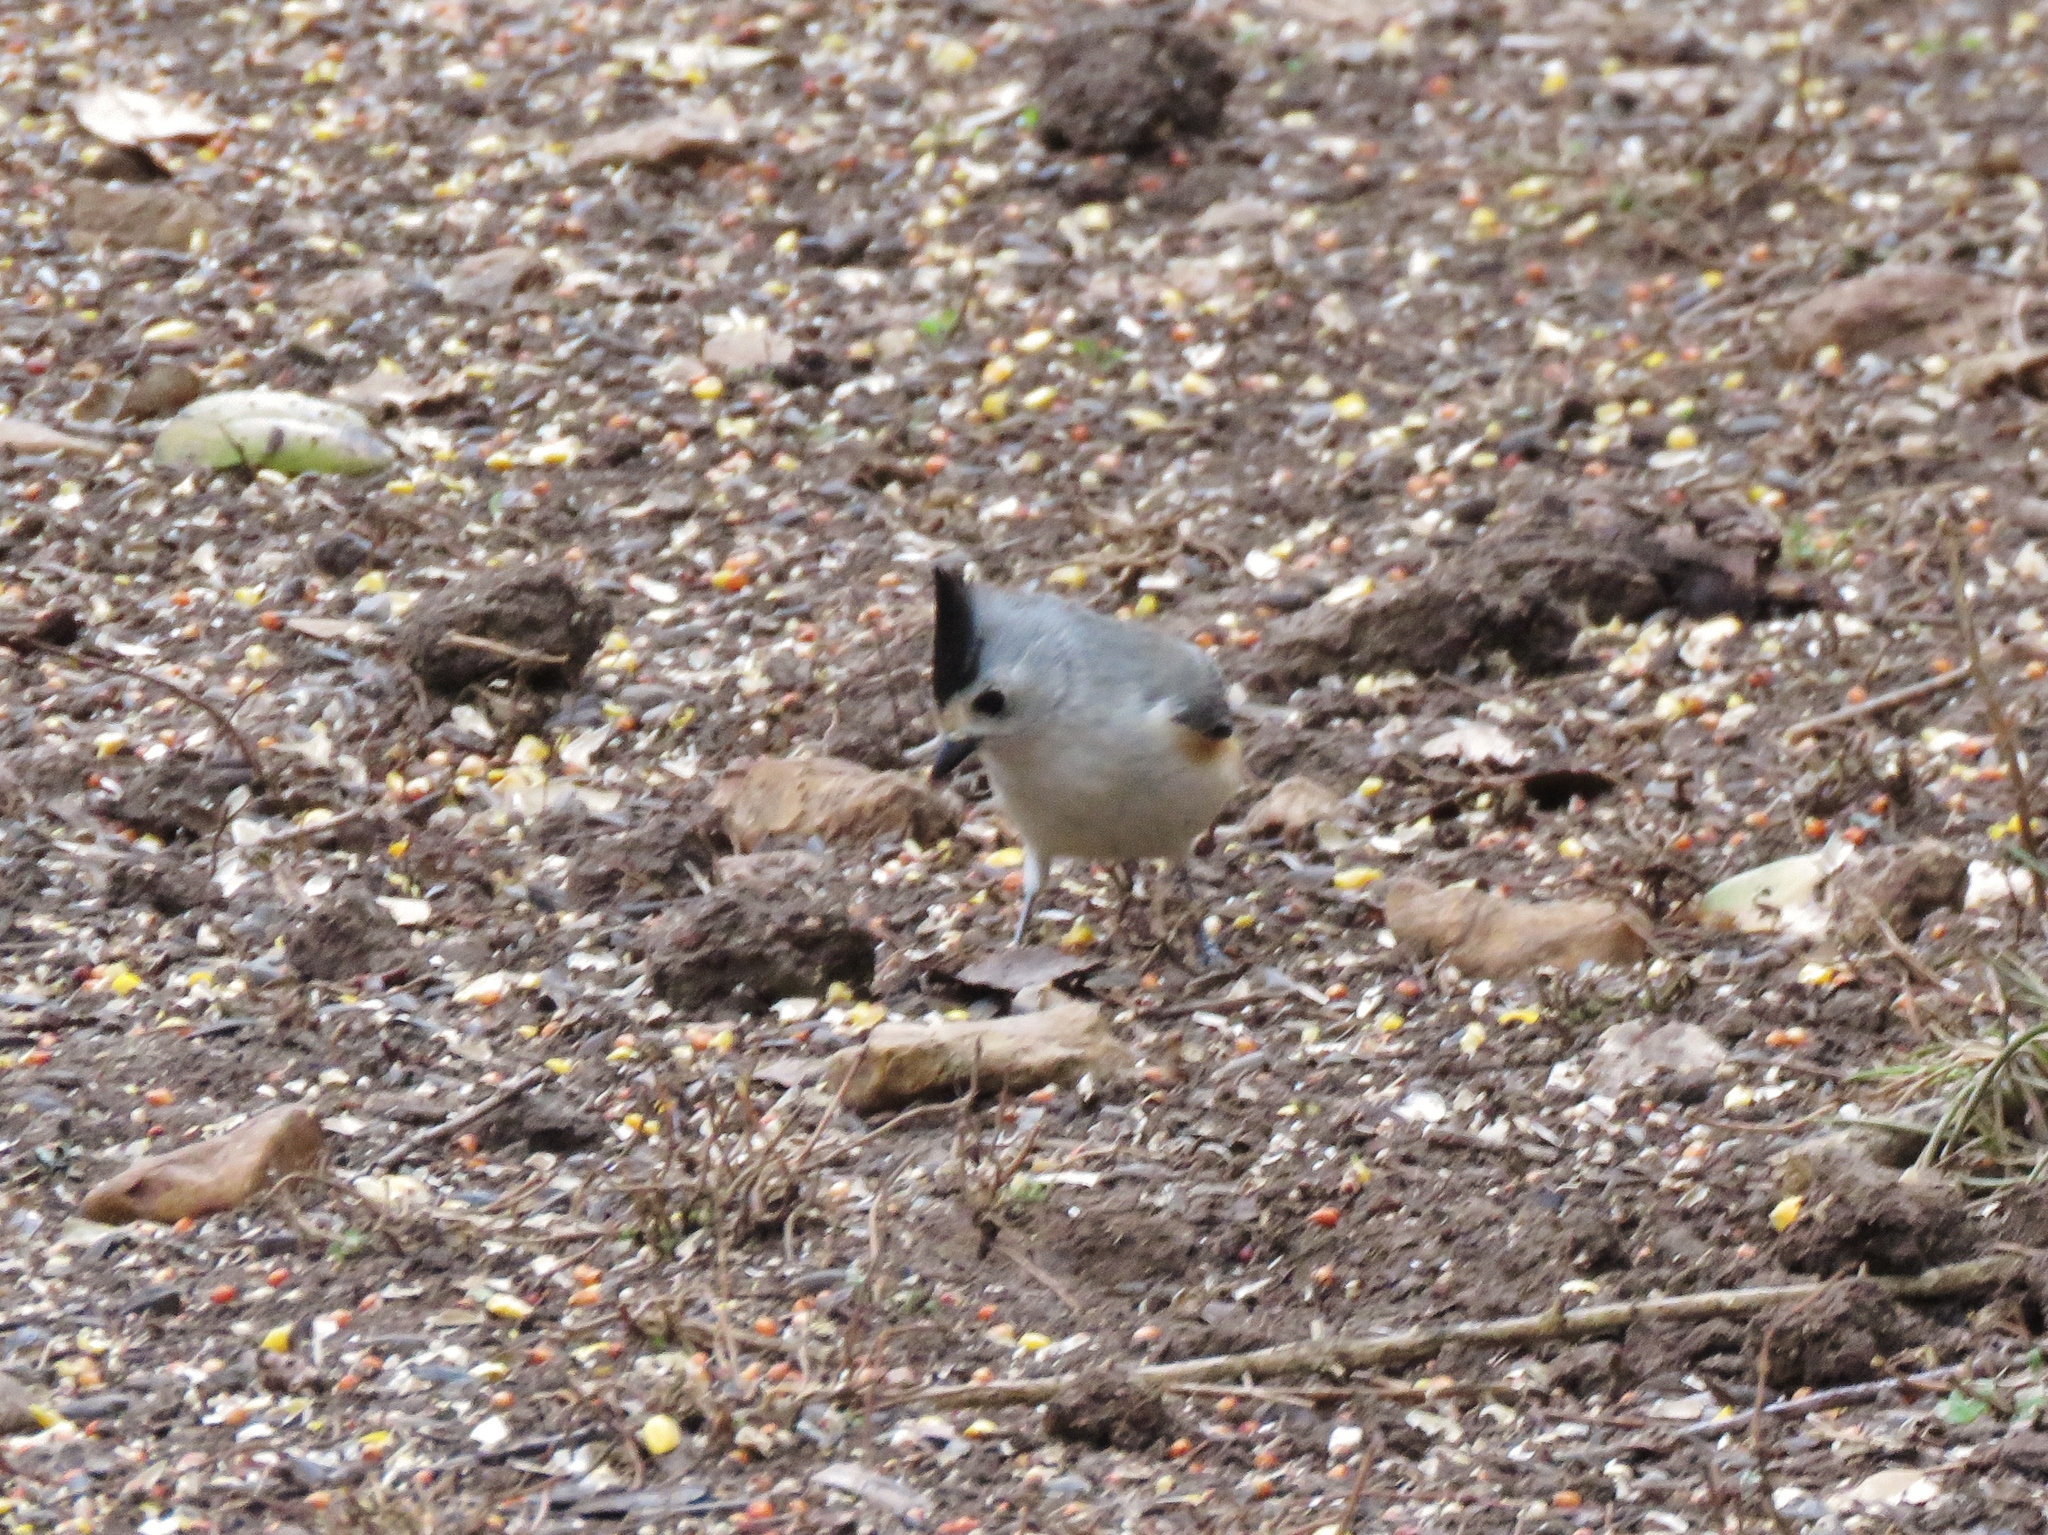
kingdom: Animalia
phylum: Chordata
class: Aves
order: Passeriformes
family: Paridae
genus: Baeolophus
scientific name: Baeolophus atricristatus
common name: Black-crested titmouse
